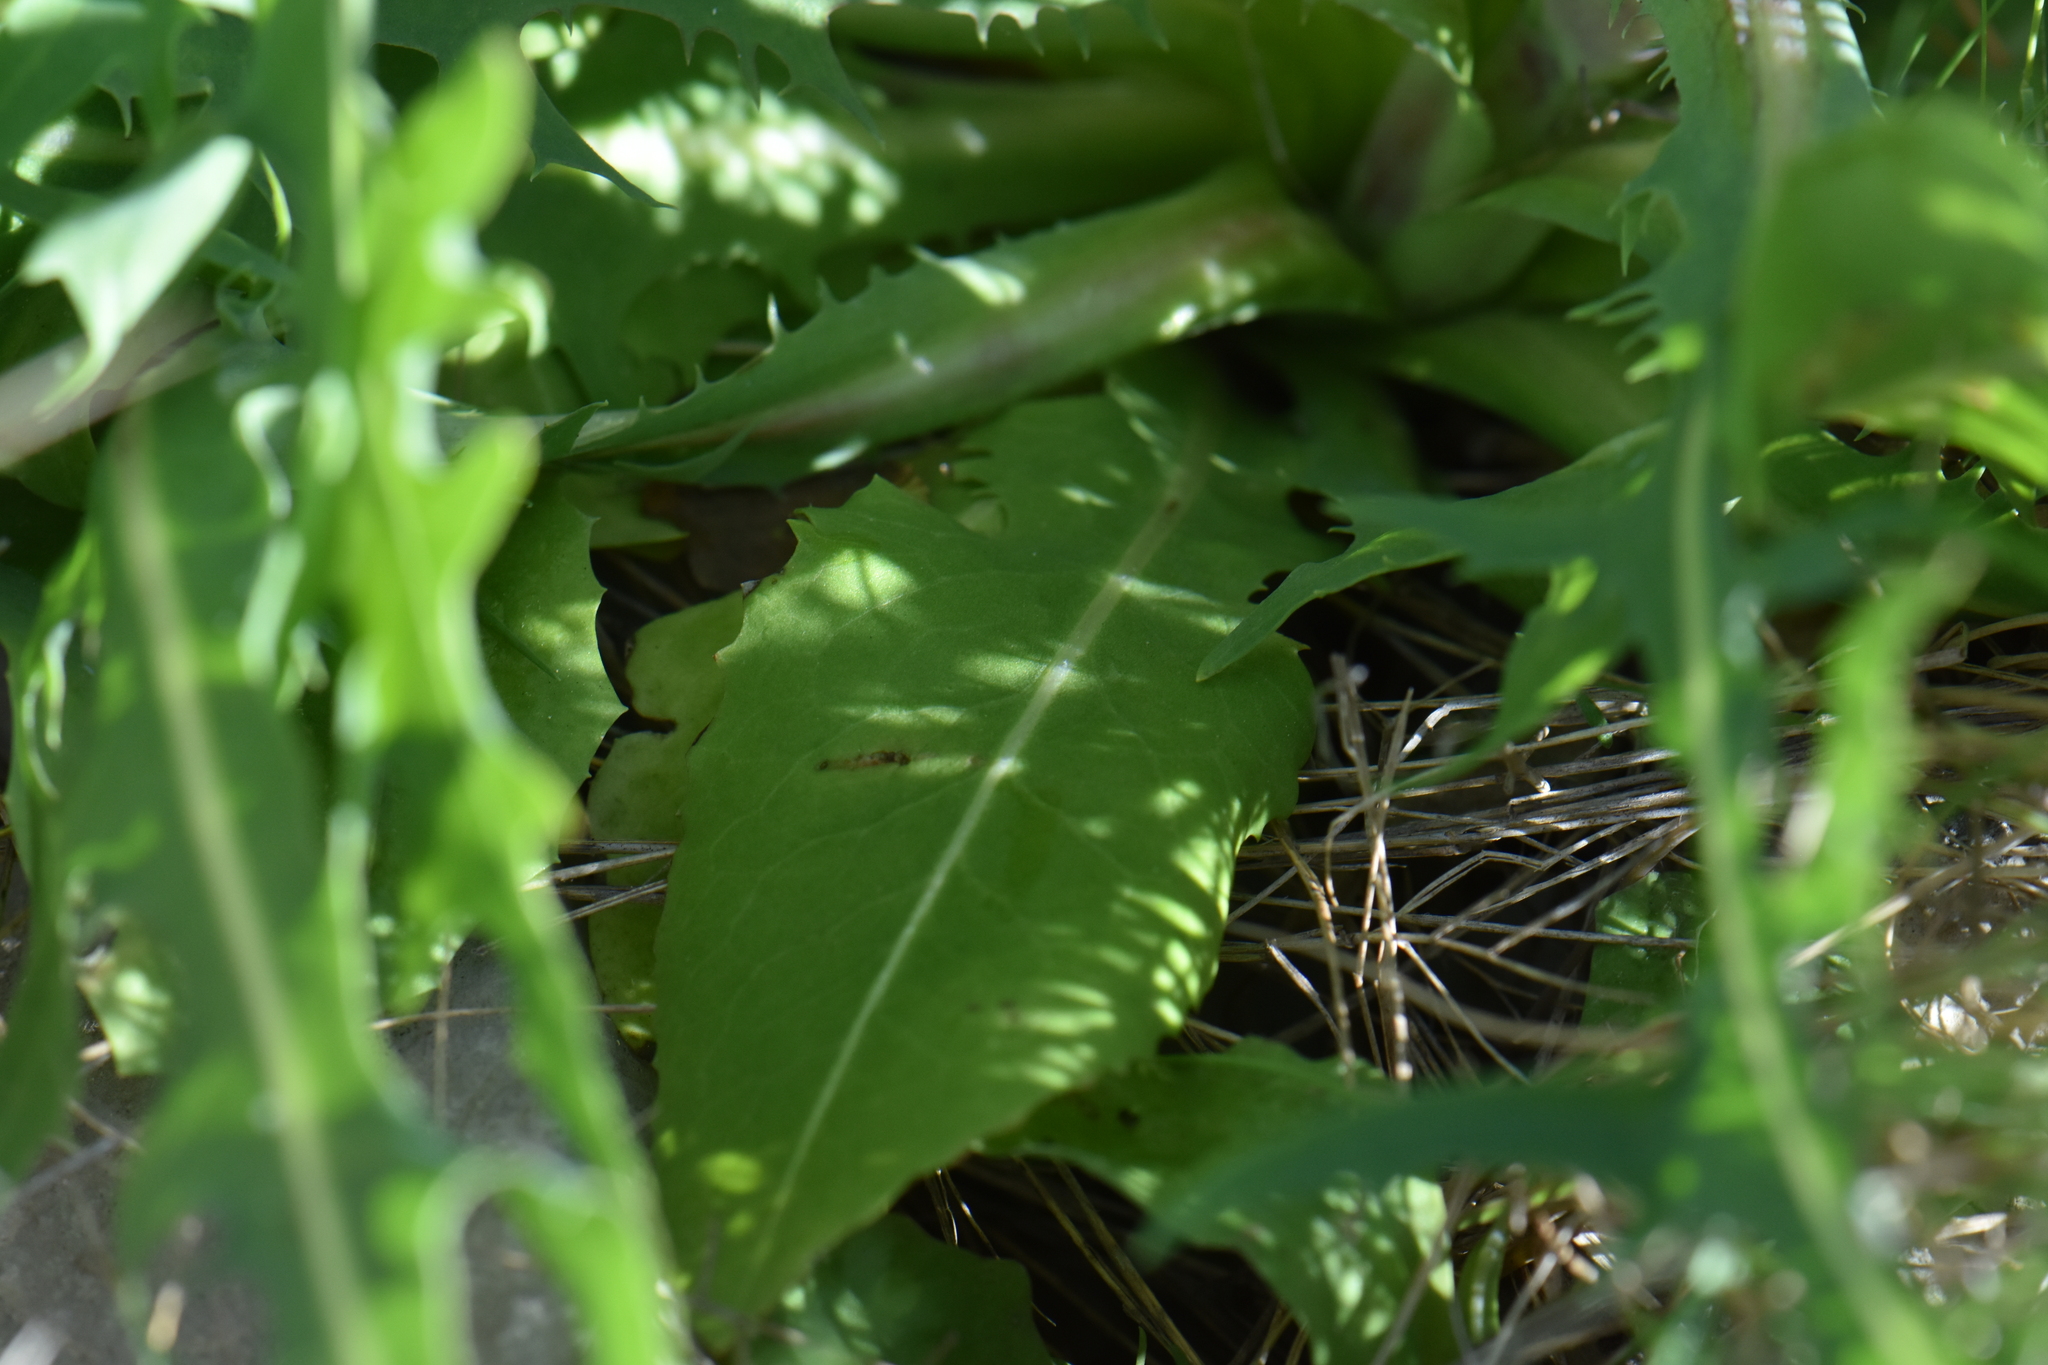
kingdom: Plantae
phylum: Tracheophyta
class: Magnoliopsida
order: Asterales
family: Asteraceae
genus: Lactuca
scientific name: Lactuca perennis
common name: Mountain lettuce
